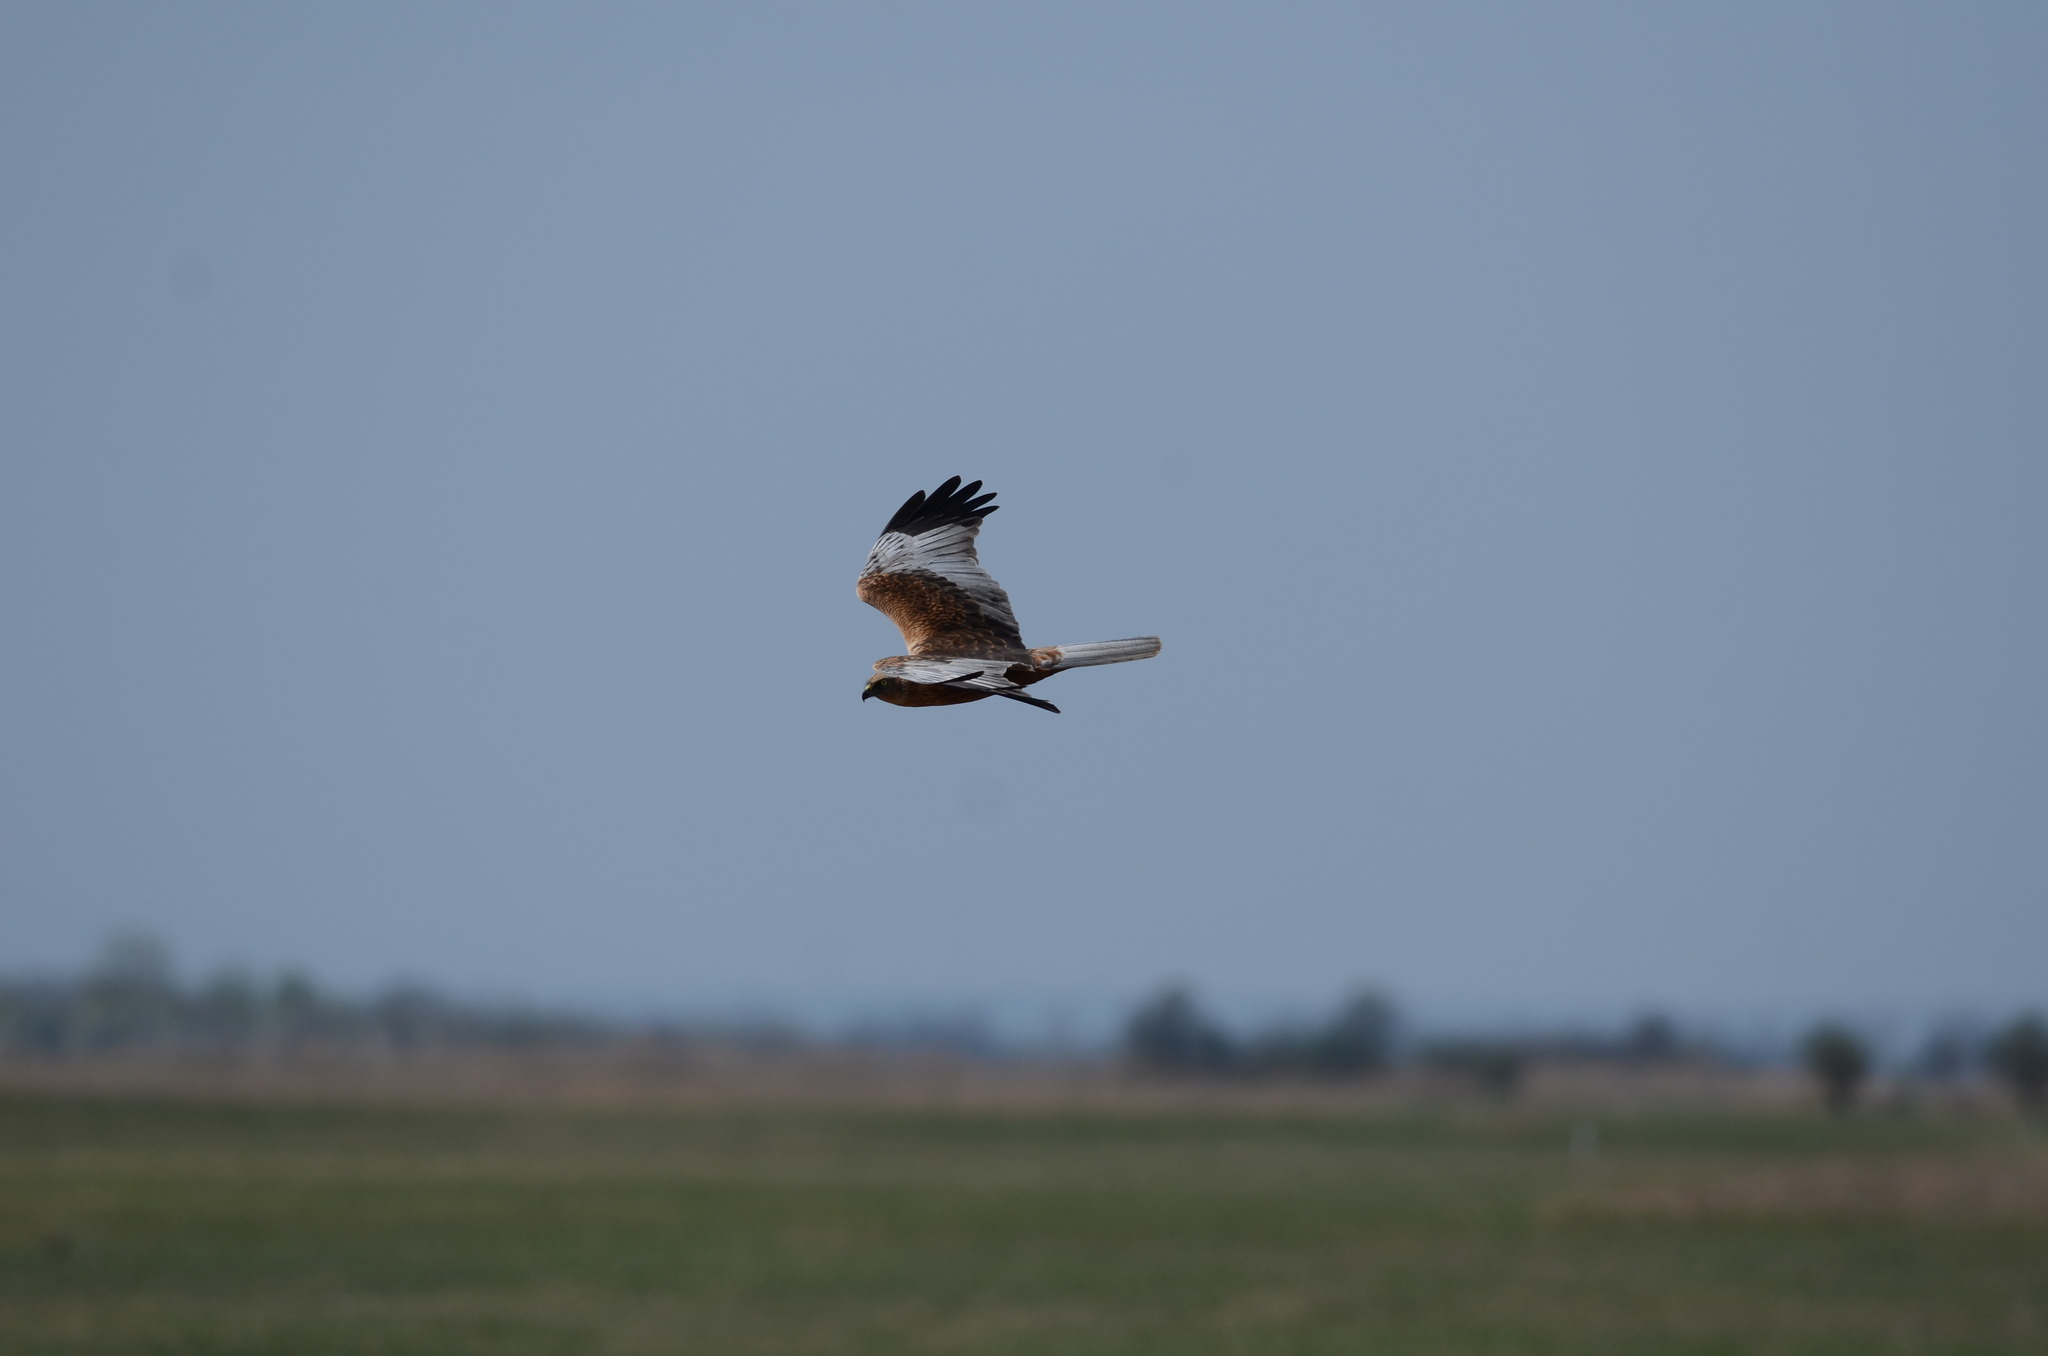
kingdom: Animalia
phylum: Chordata
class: Aves
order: Accipitriformes
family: Accipitridae
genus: Circus
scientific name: Circus aeruginosus
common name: Western marsh harrier
